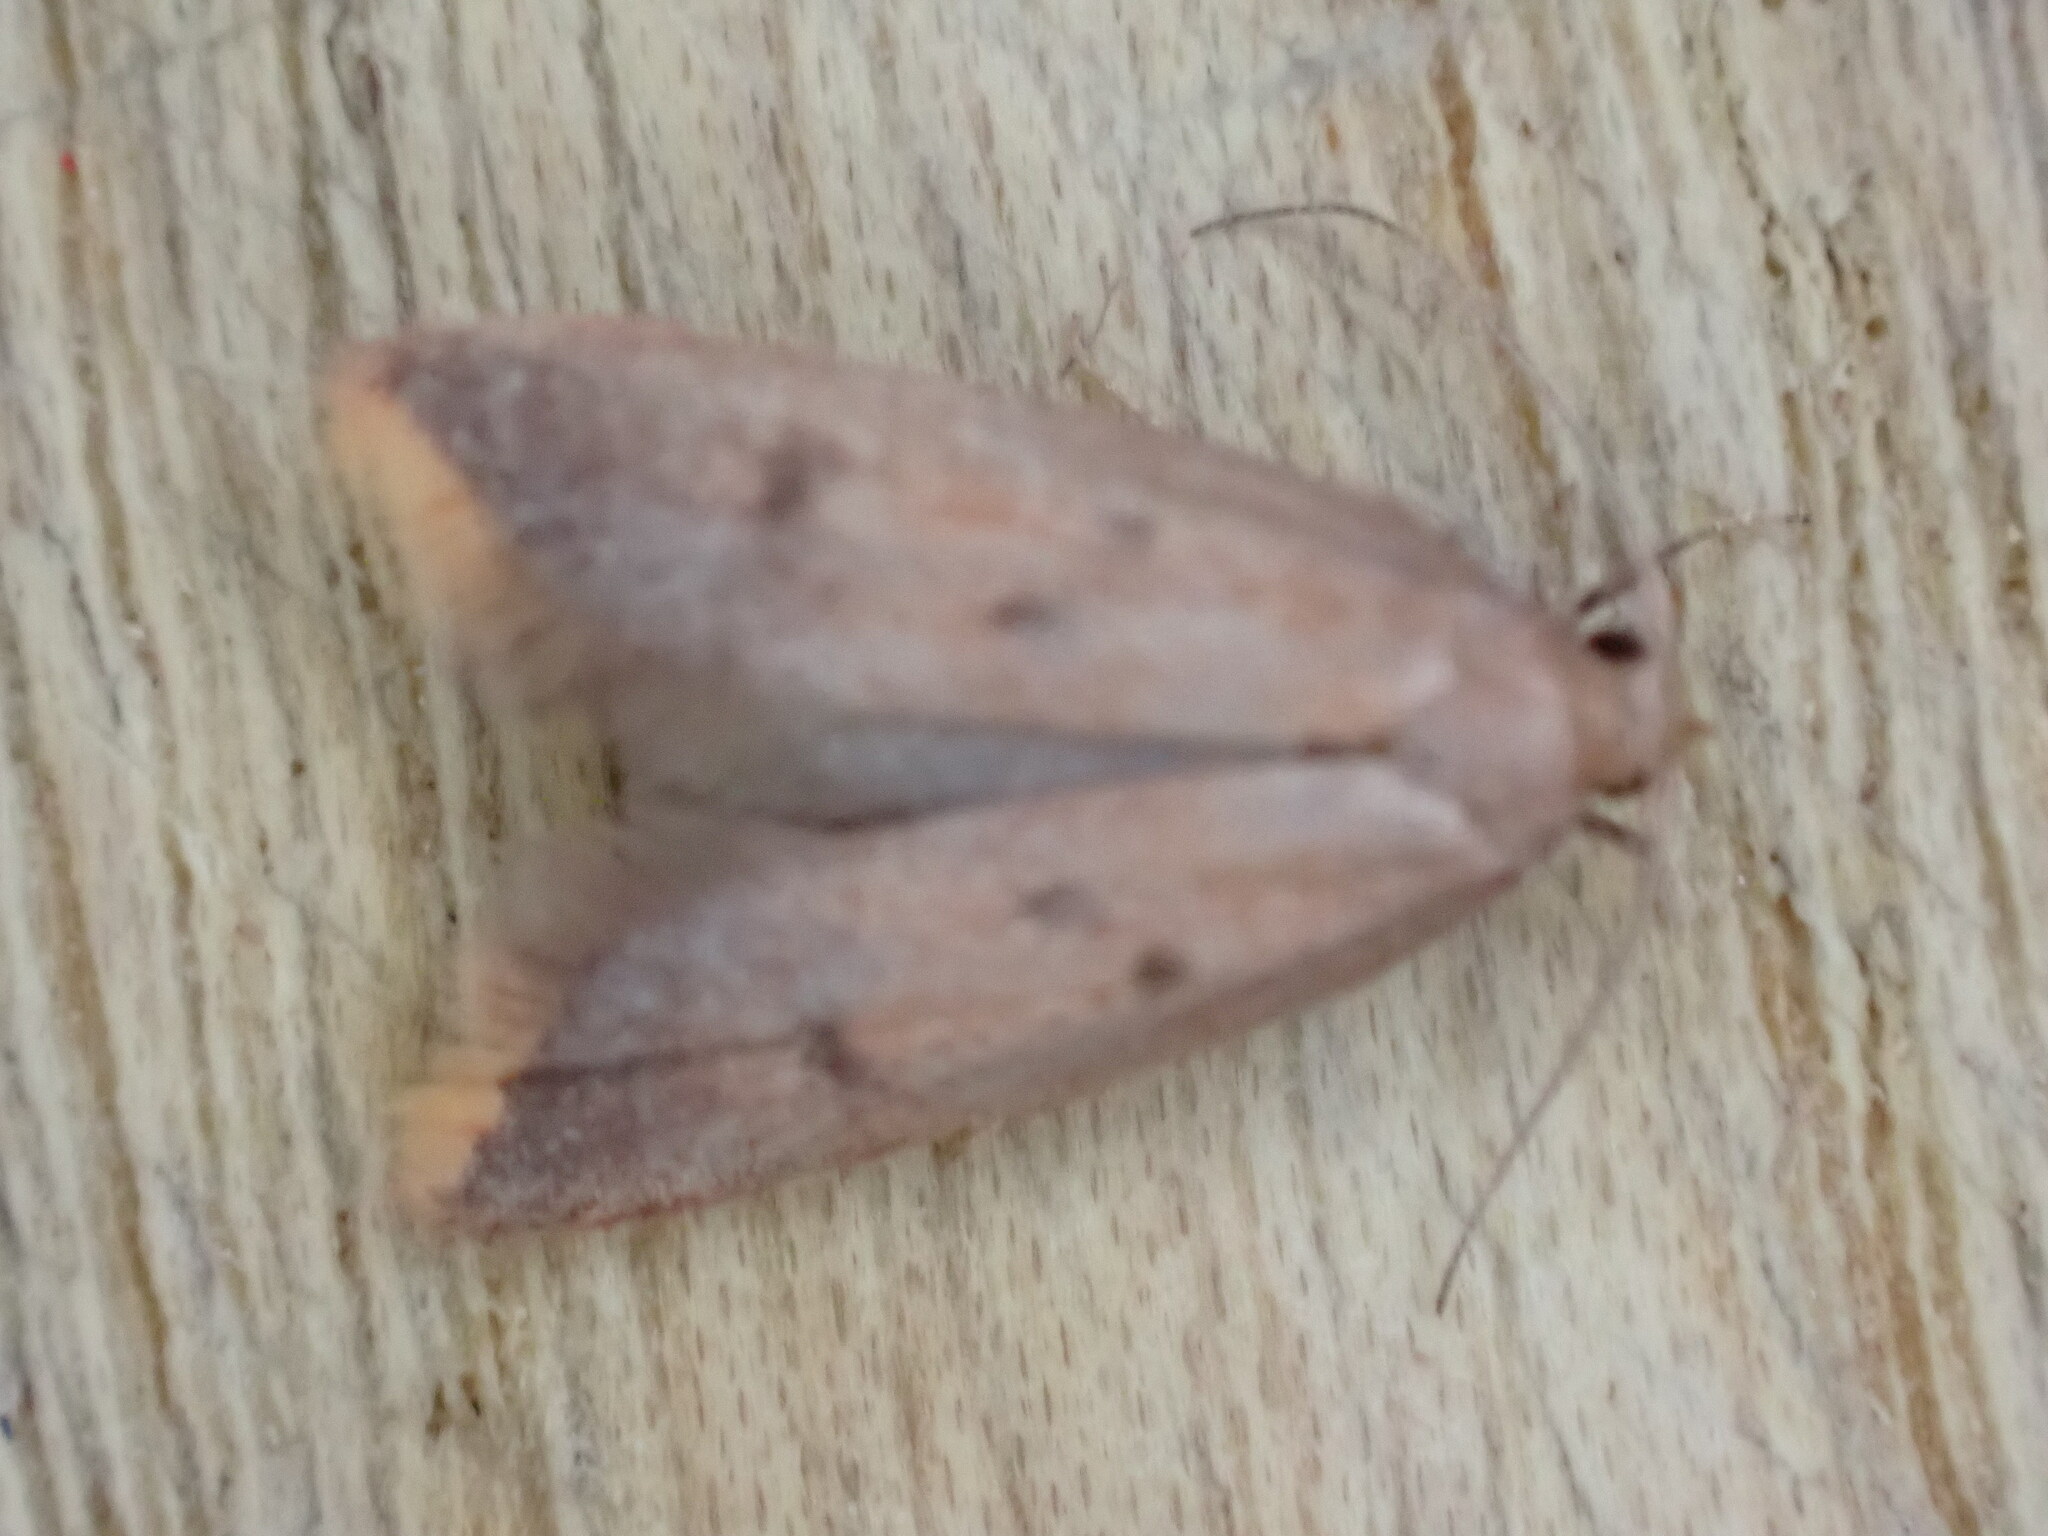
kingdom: Animalia
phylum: Arthropoda
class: Insecta
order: Lepidoptera
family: Oecophoridae
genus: Tachystola
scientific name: Tachystola acroxantha
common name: Ruddy streak
